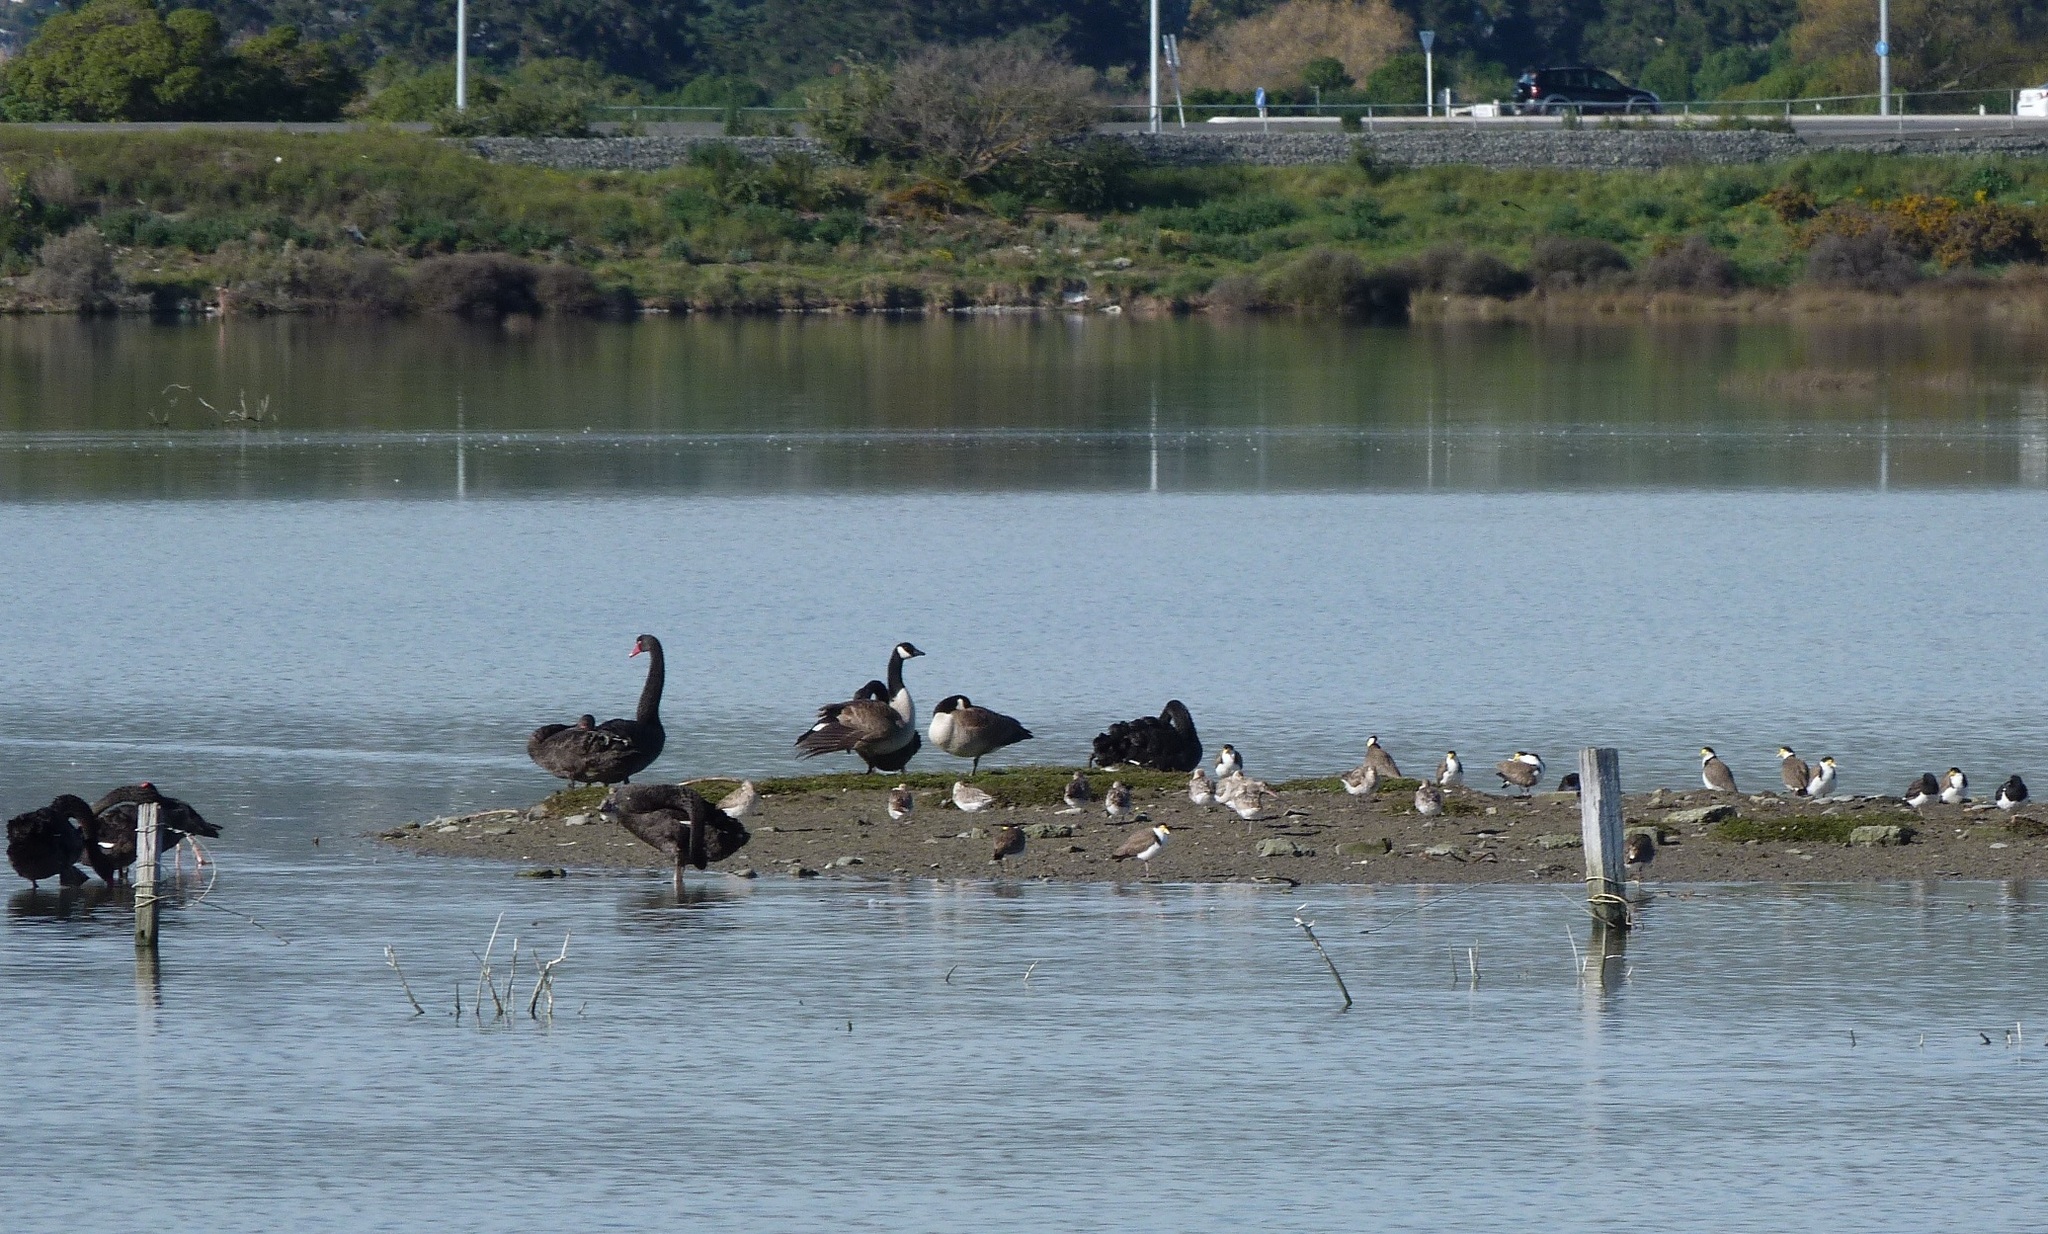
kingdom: Animalia
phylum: Chordata
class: Aves
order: Charadriiformes
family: Scolopacidae
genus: Limosa
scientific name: Limosa lapponica
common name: Bar-tailed godwit
